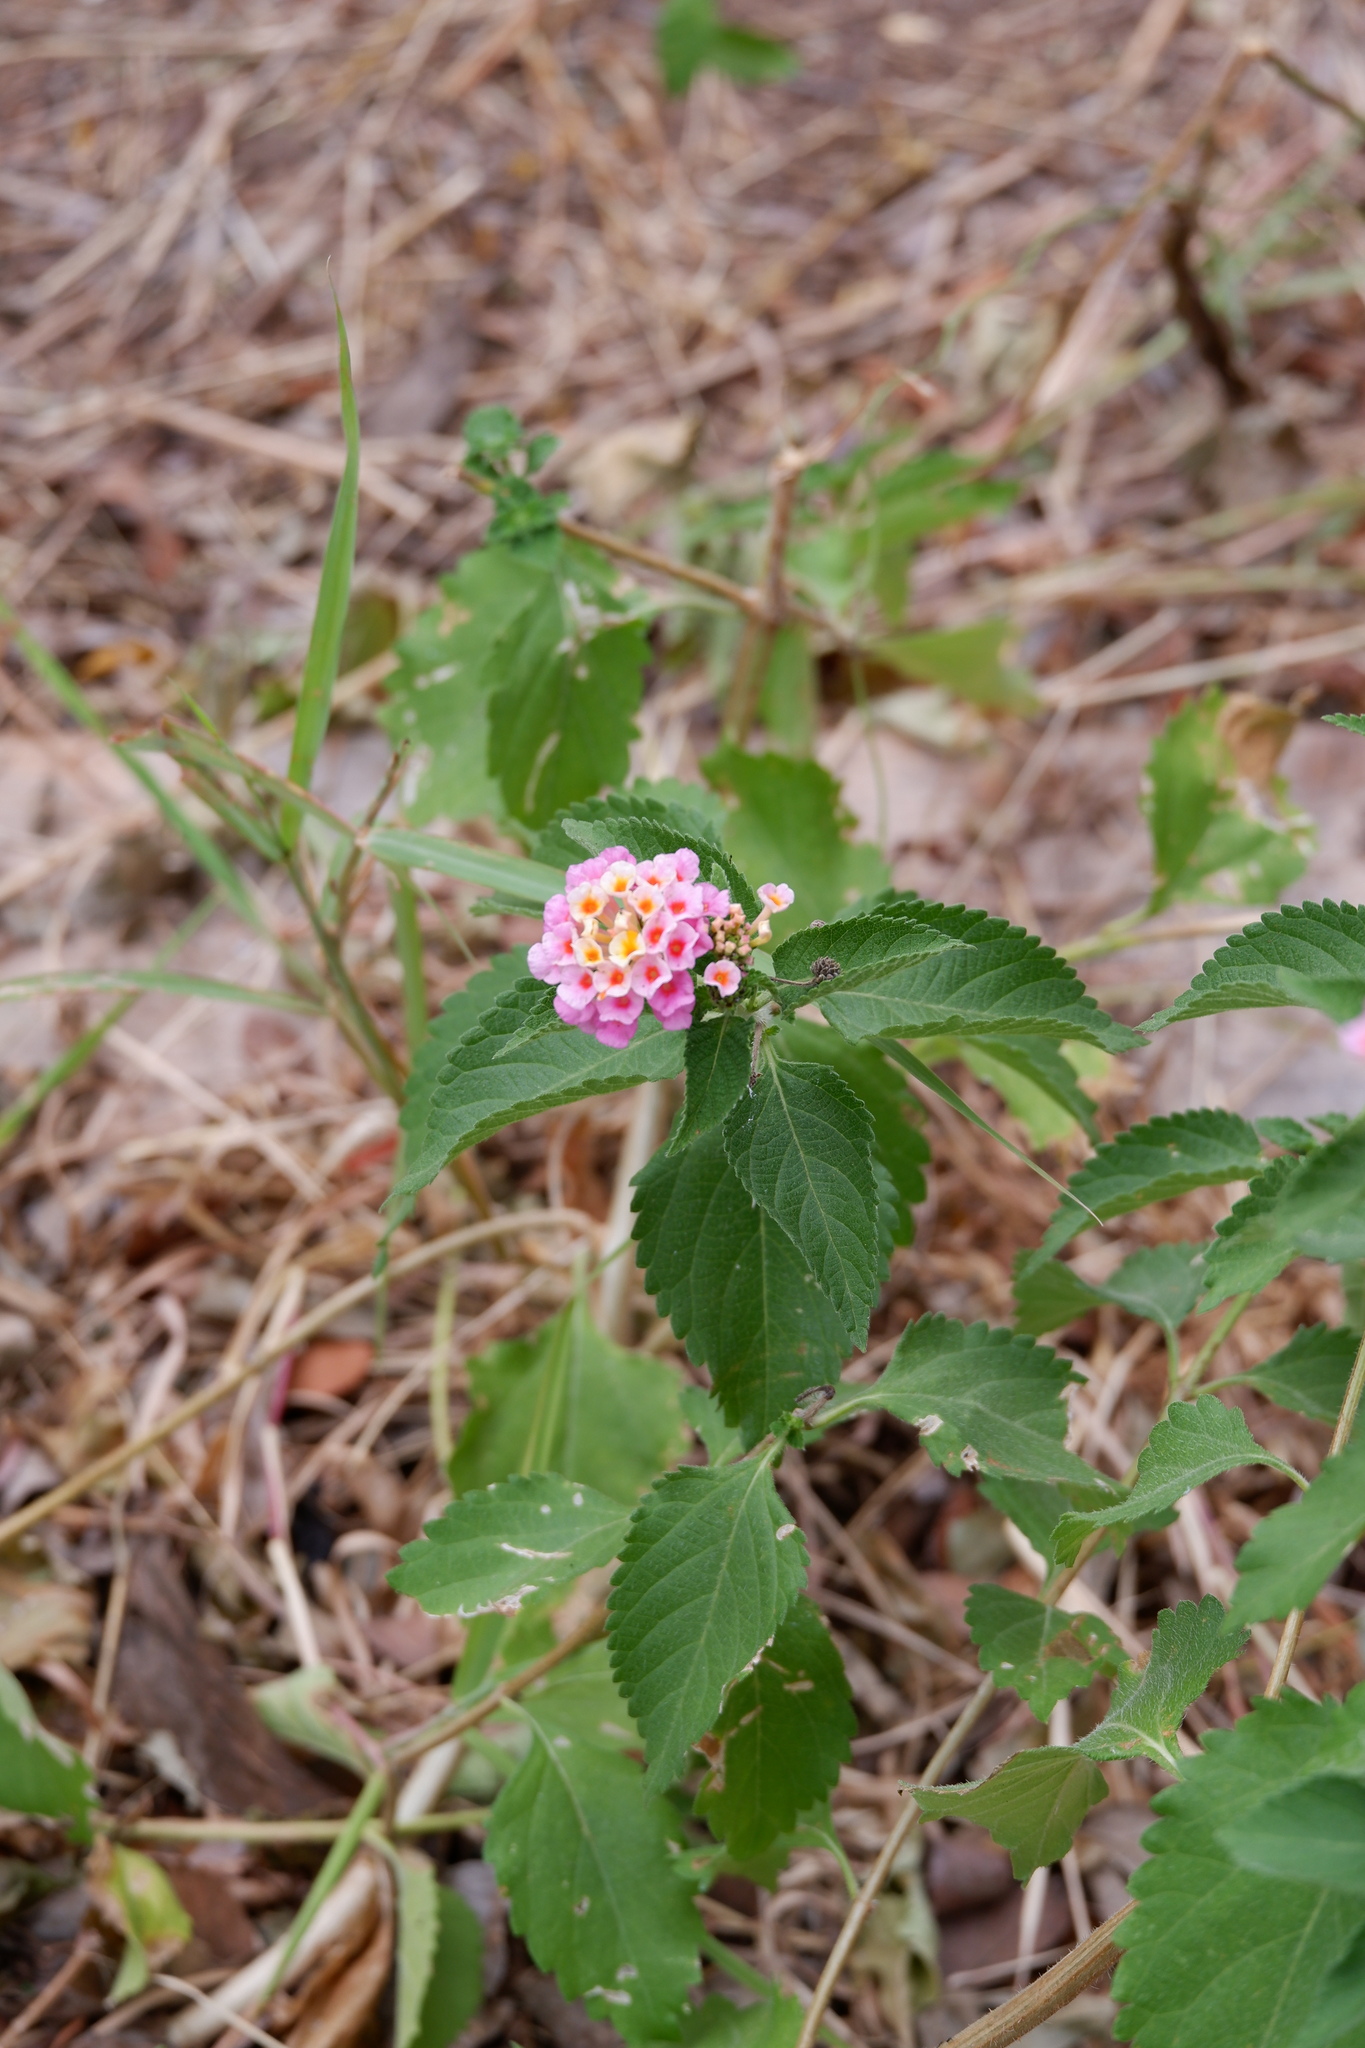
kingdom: Plantae
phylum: Tracheophyta
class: Magnoliopsida
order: Lamiales
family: Verbenaceae
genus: Lantana
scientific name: Lantana strigocamara
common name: Lantana
